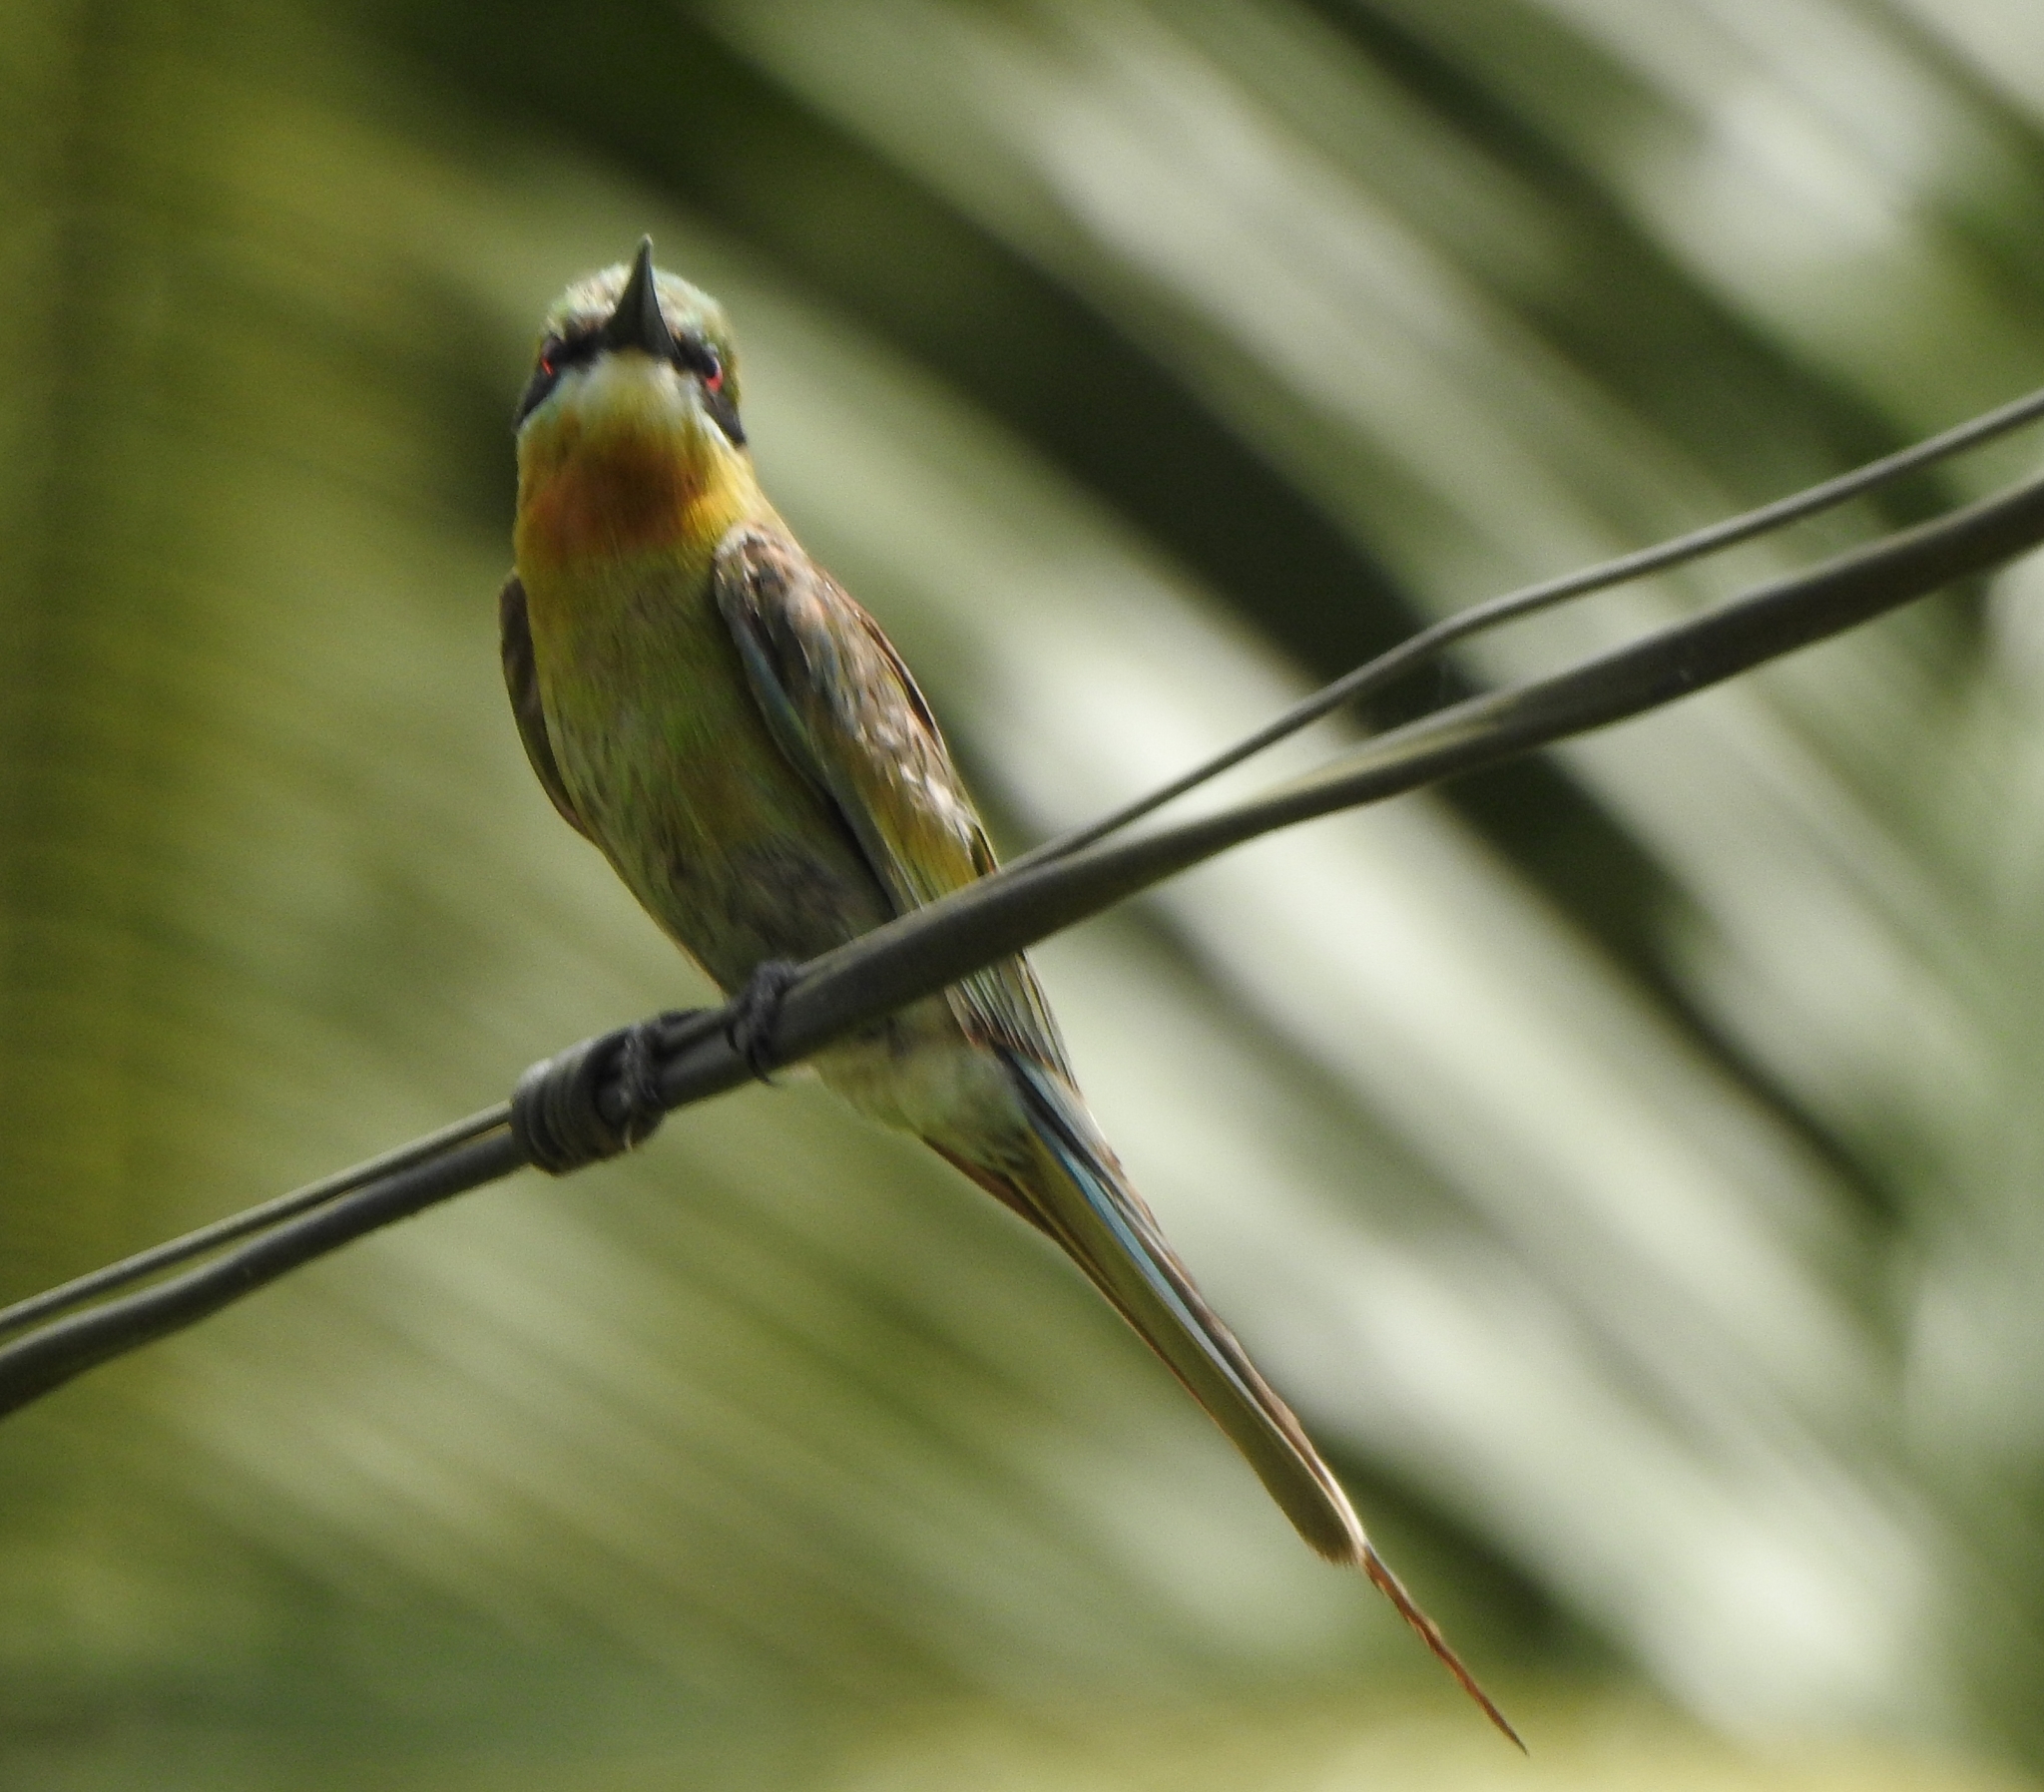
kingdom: Animalia
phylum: Chordata
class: Aves
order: Coraciiformes
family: Meropidae
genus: Merops
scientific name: Merops philippinus
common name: Blue-tailed bee-eater
